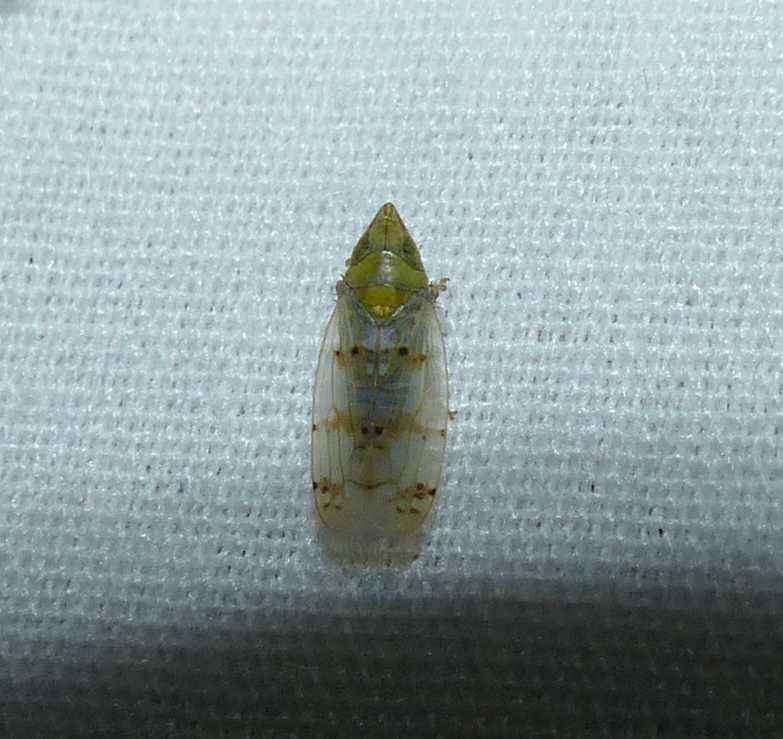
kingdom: Animalia
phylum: Arthropoda
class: Insecta
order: Hemiptera
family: Cicadellidae
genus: Japananus
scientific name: Japananus hyalinus
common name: The japanese maple leafhopper
